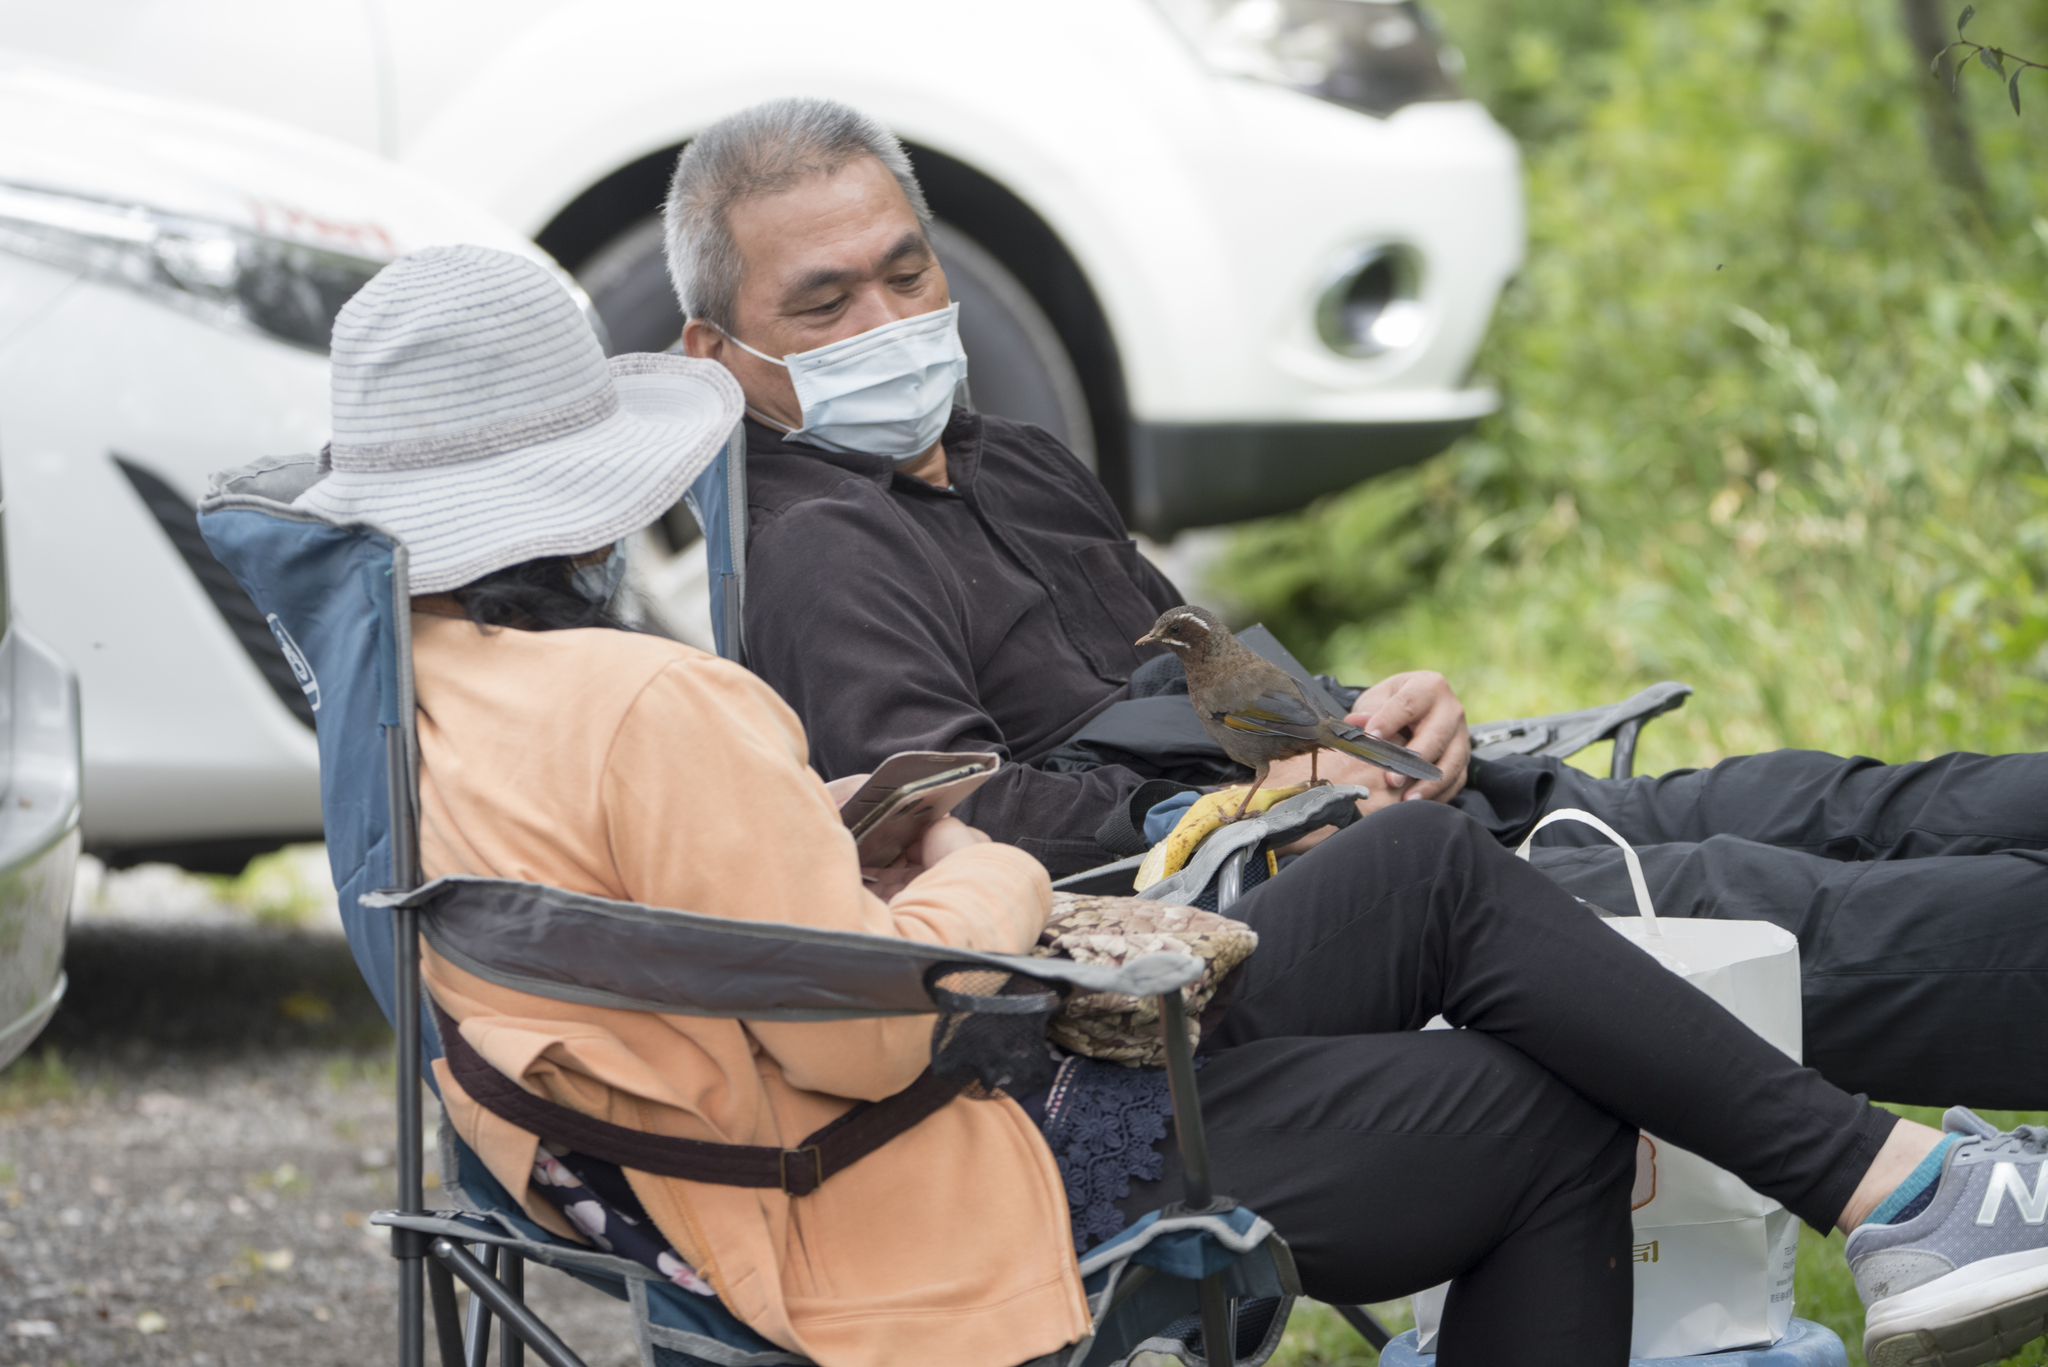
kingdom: Animalia
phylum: Chordata
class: Aves
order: Passeriformes
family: Leiothrichidae
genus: Trochalopteron
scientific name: Trochalopteron morrisonianum
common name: White-whiskered laughingthrush
